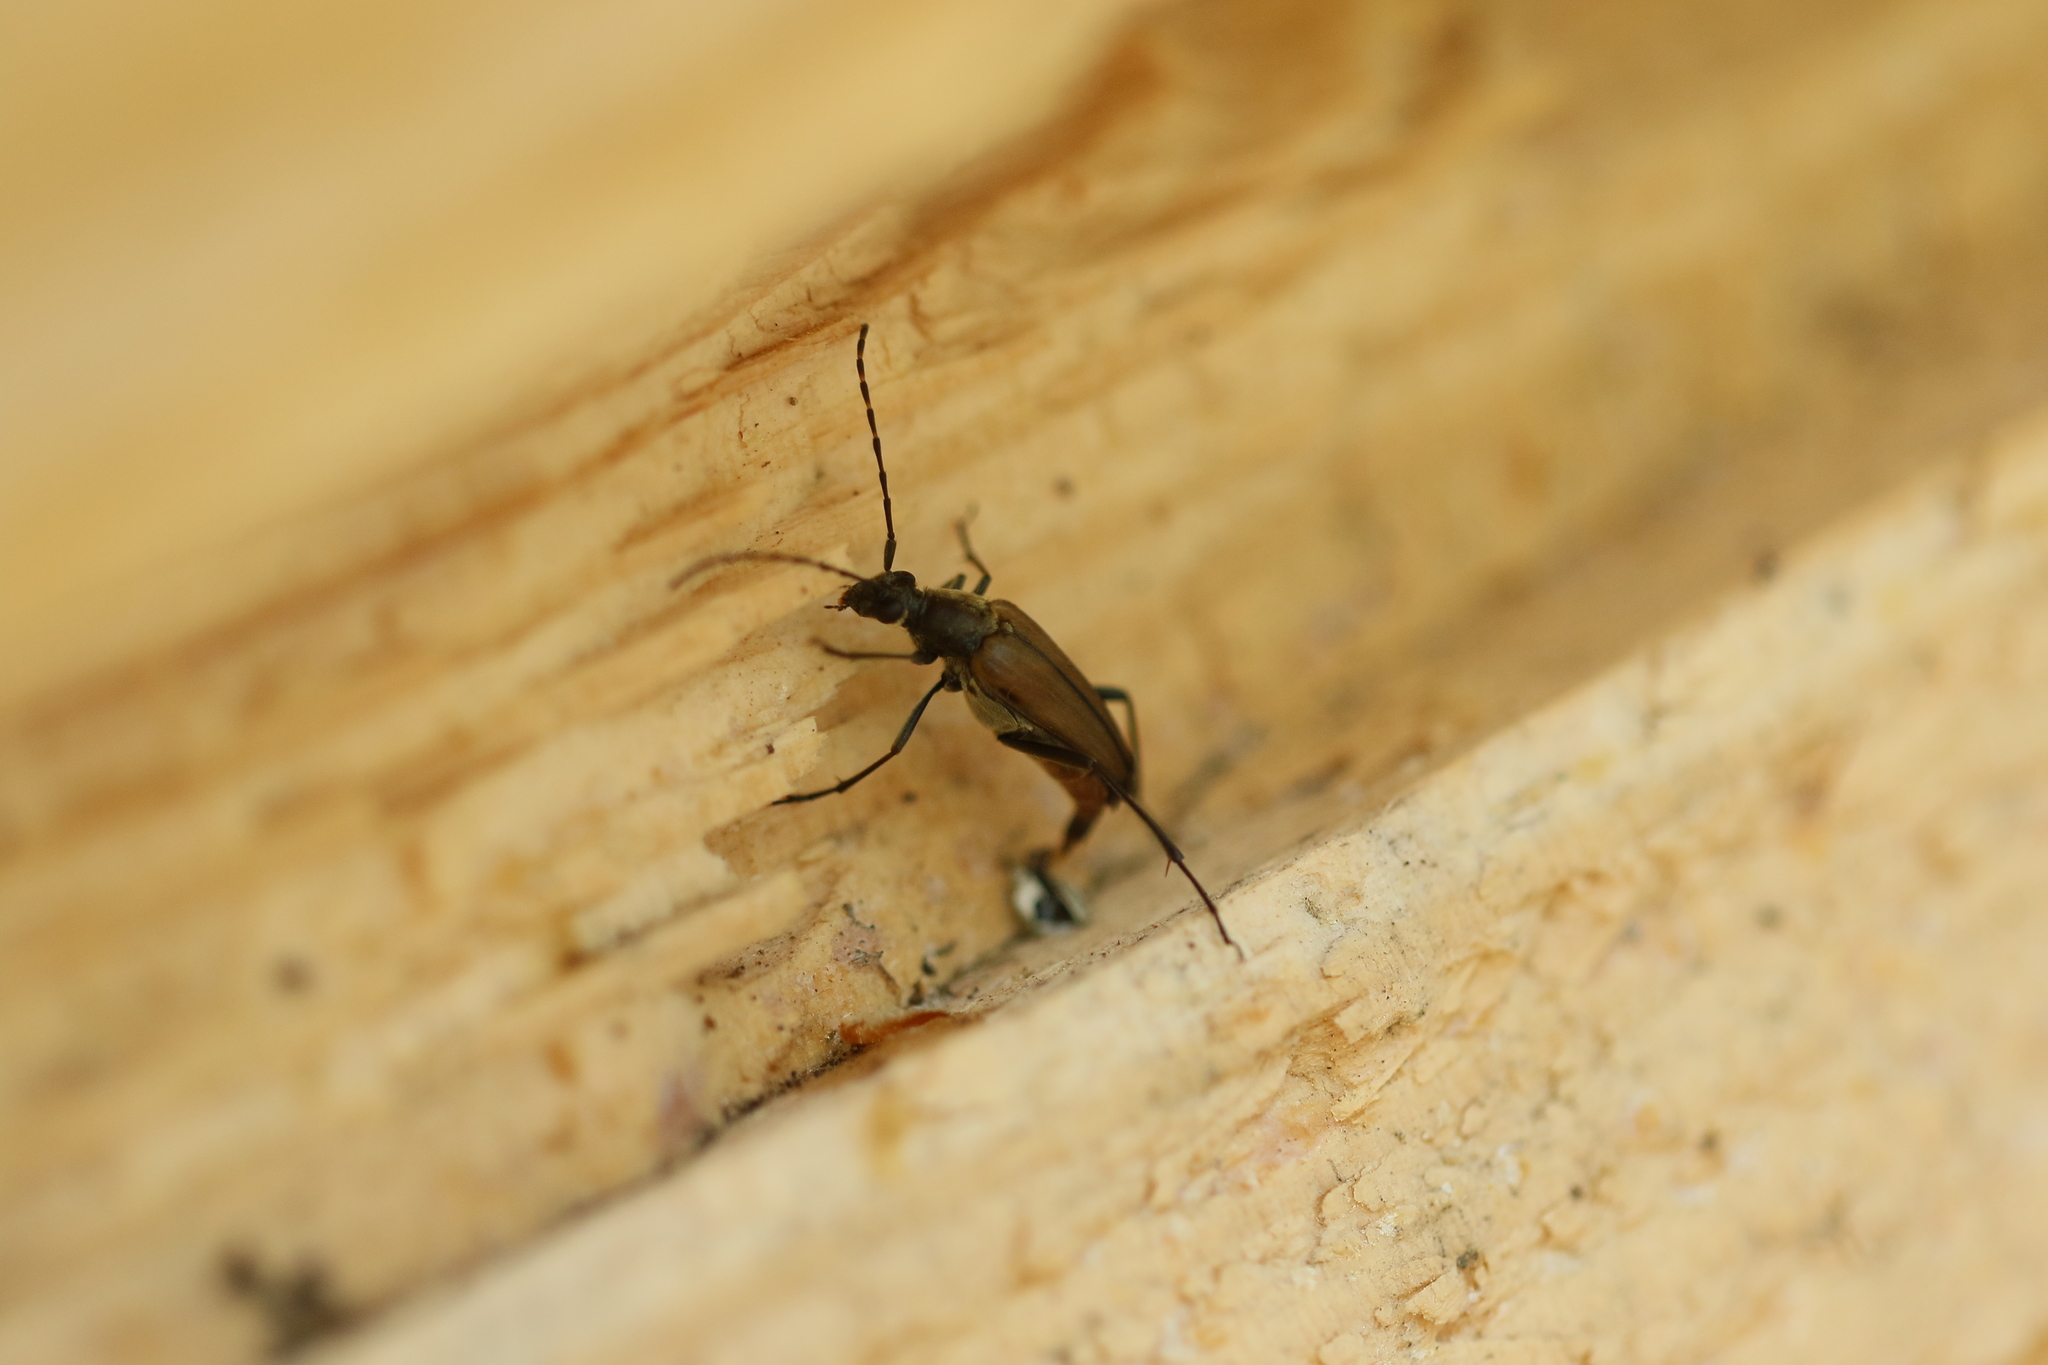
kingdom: Animalia
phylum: Arthropoda
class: Insecta
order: Coleoptera
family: Cerambycidae
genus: Etorofus
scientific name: Etorofus
